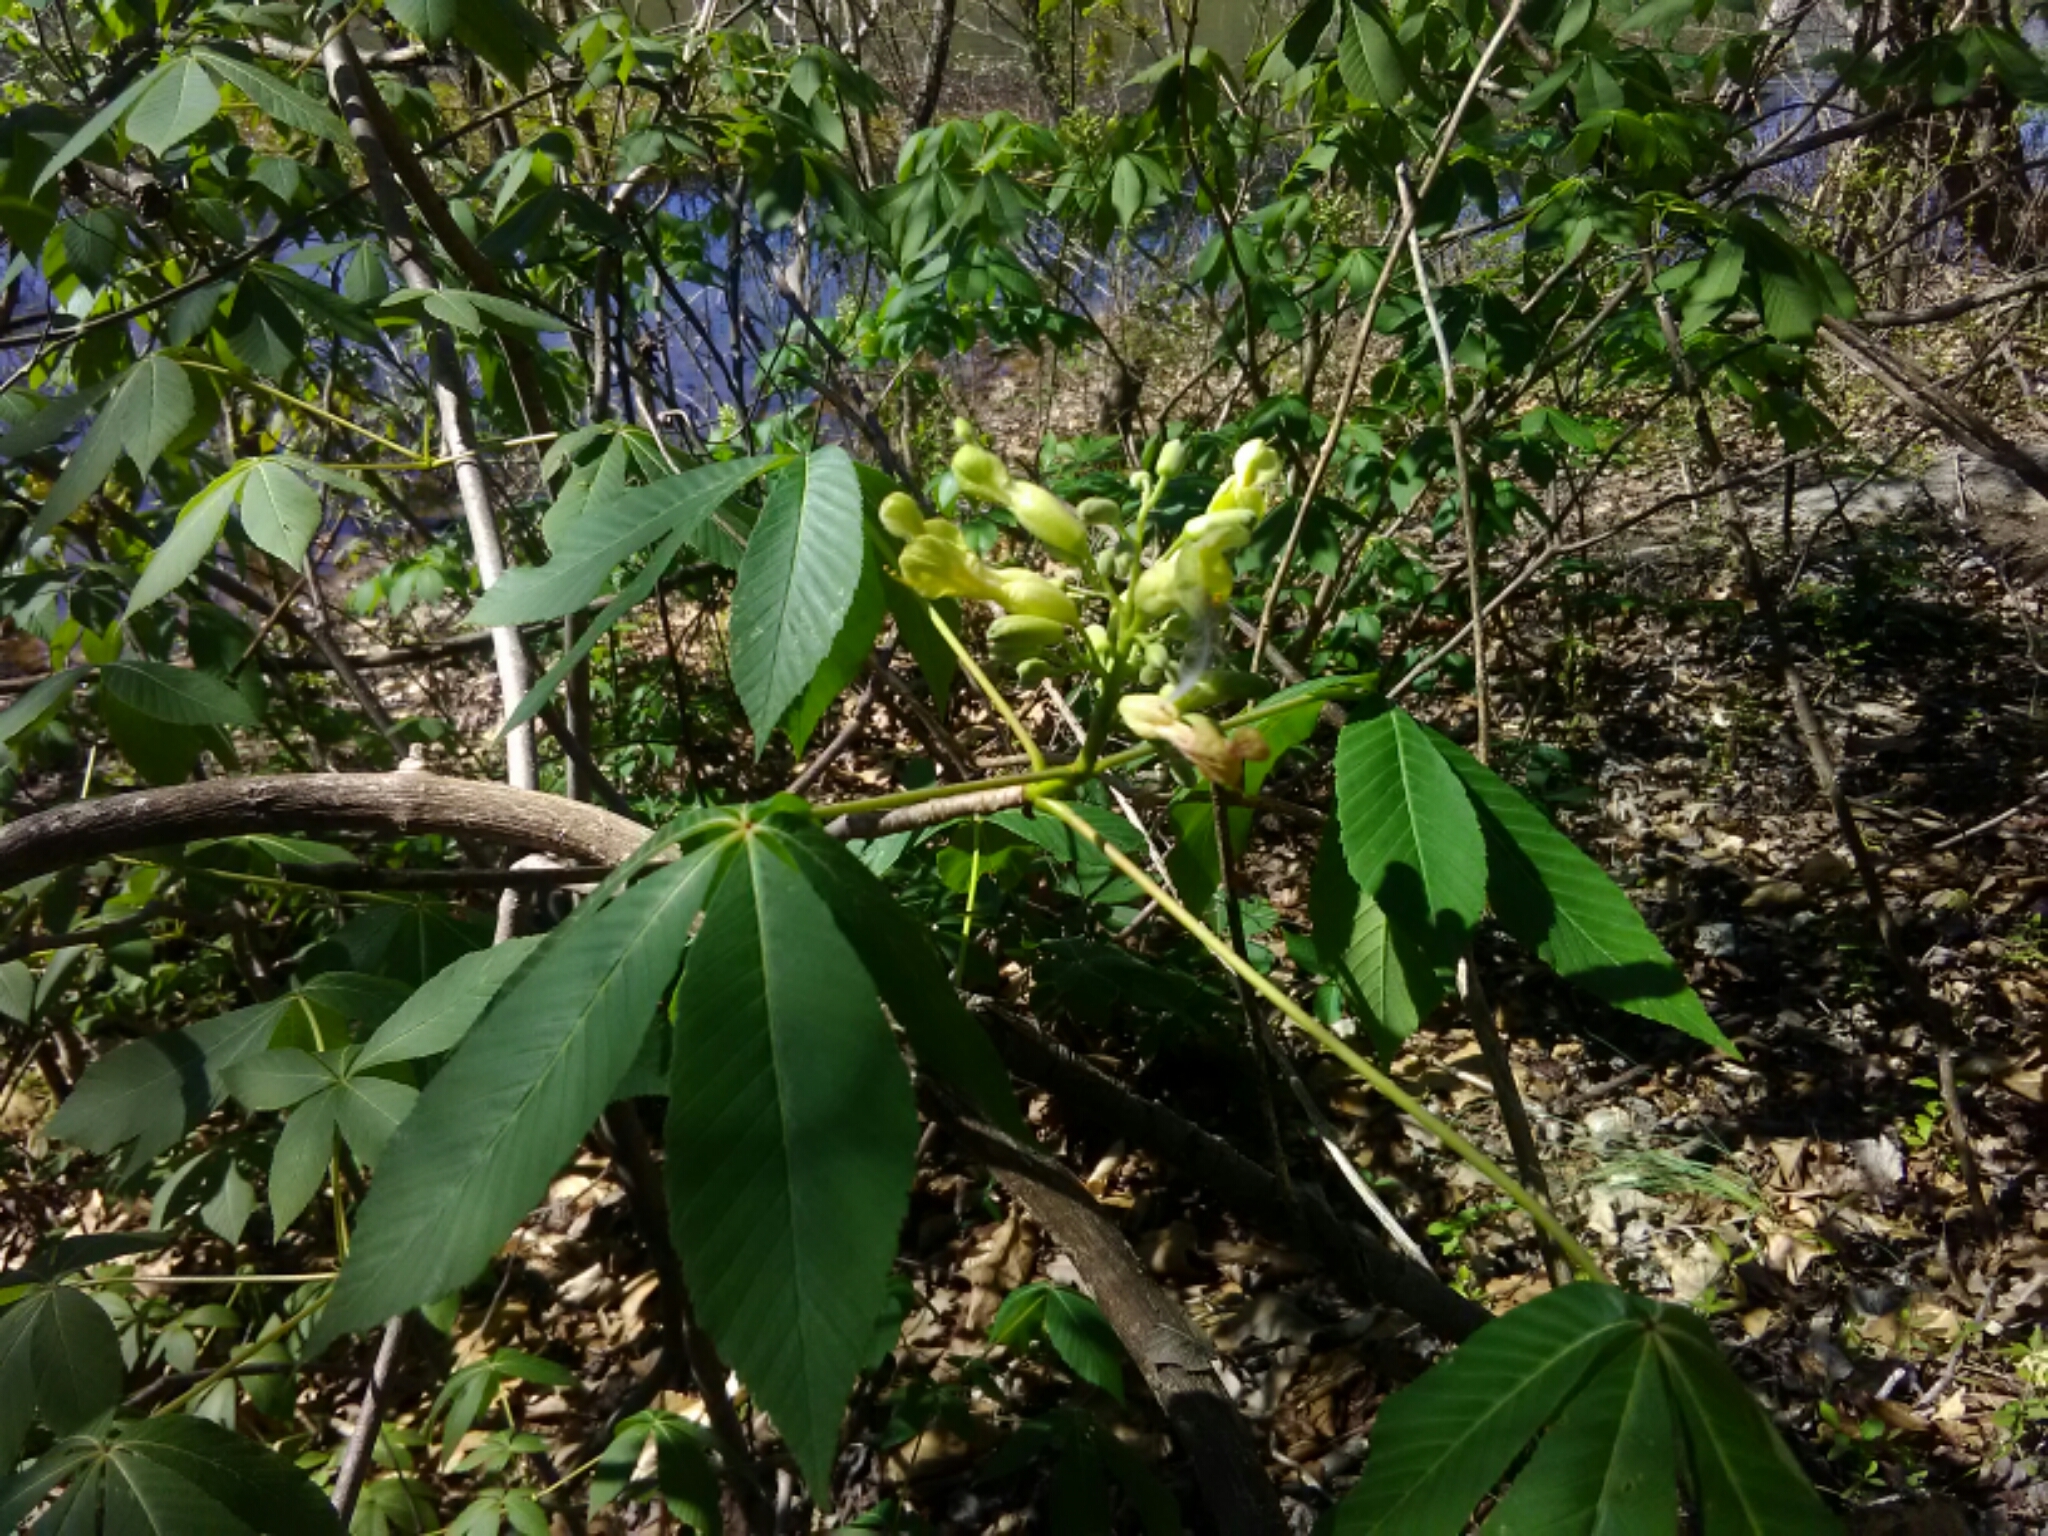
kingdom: Plantae
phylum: Tracheophyta
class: Magnoliopsida
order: Sapindales
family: Sapindaceae
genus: Aesculus
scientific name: Aesculus sylvatica
